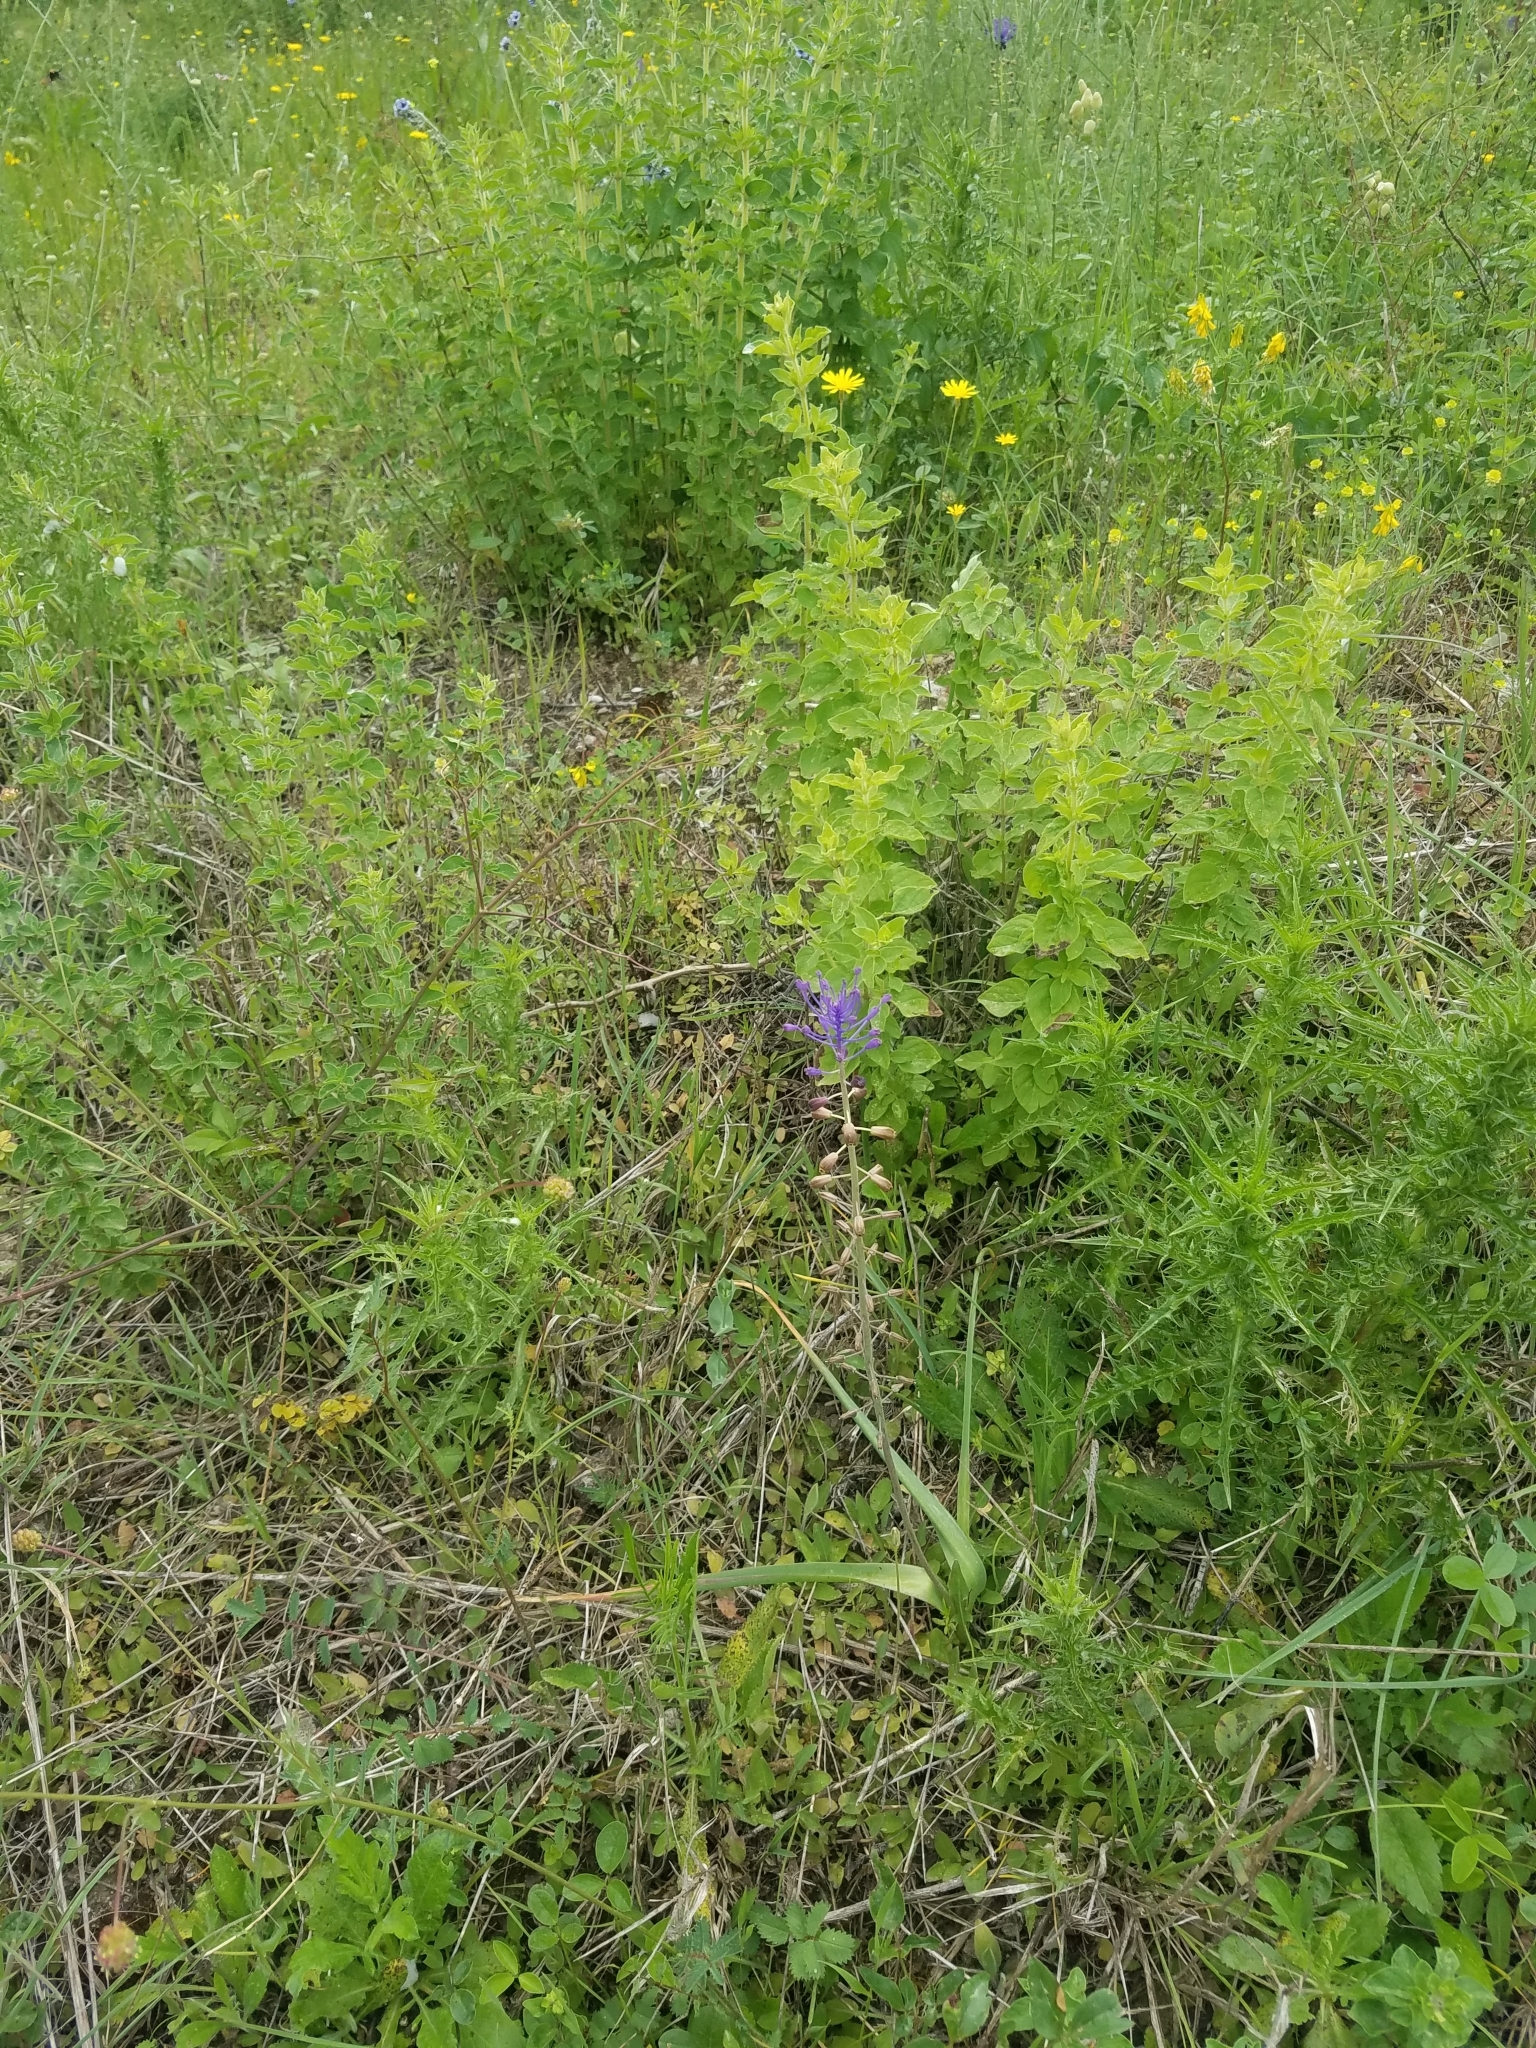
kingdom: Plantae
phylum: Tracheophyta
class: Liliopsida
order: Asparagales
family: Asparagaceae
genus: Muscari
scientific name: Muscari comosum
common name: Tassel hyacinth
